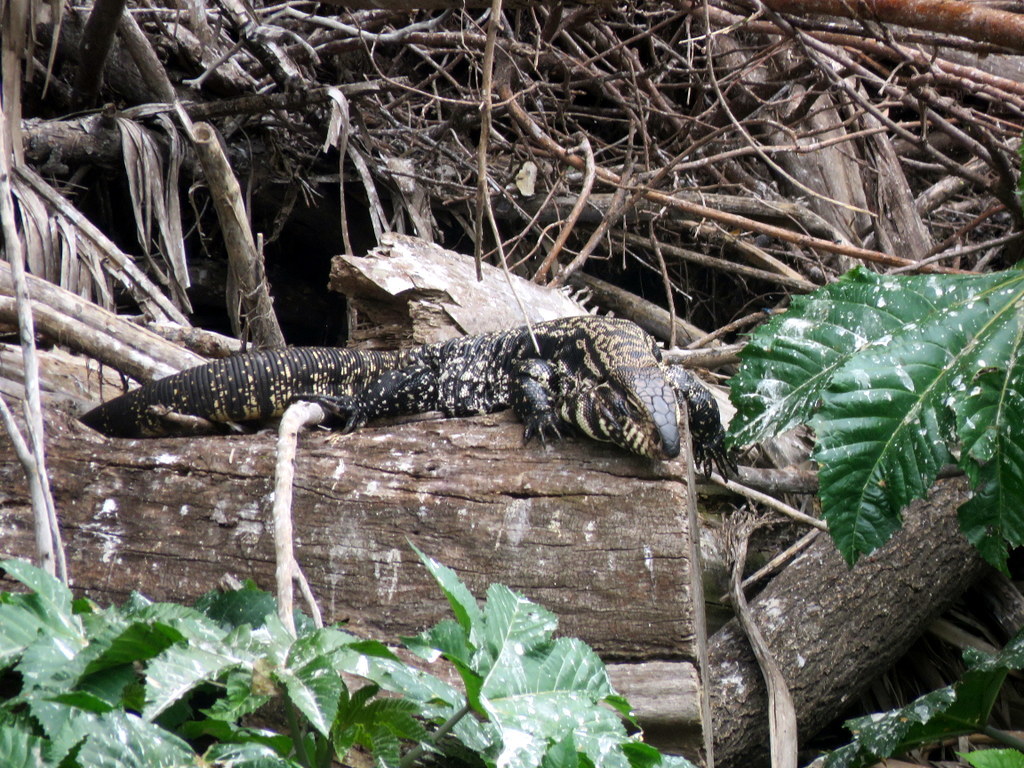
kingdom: Animalia
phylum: Chordata
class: Squamata
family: Teiidae
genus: Salvator
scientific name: Salvator merianae
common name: Argentine black and white tegu
